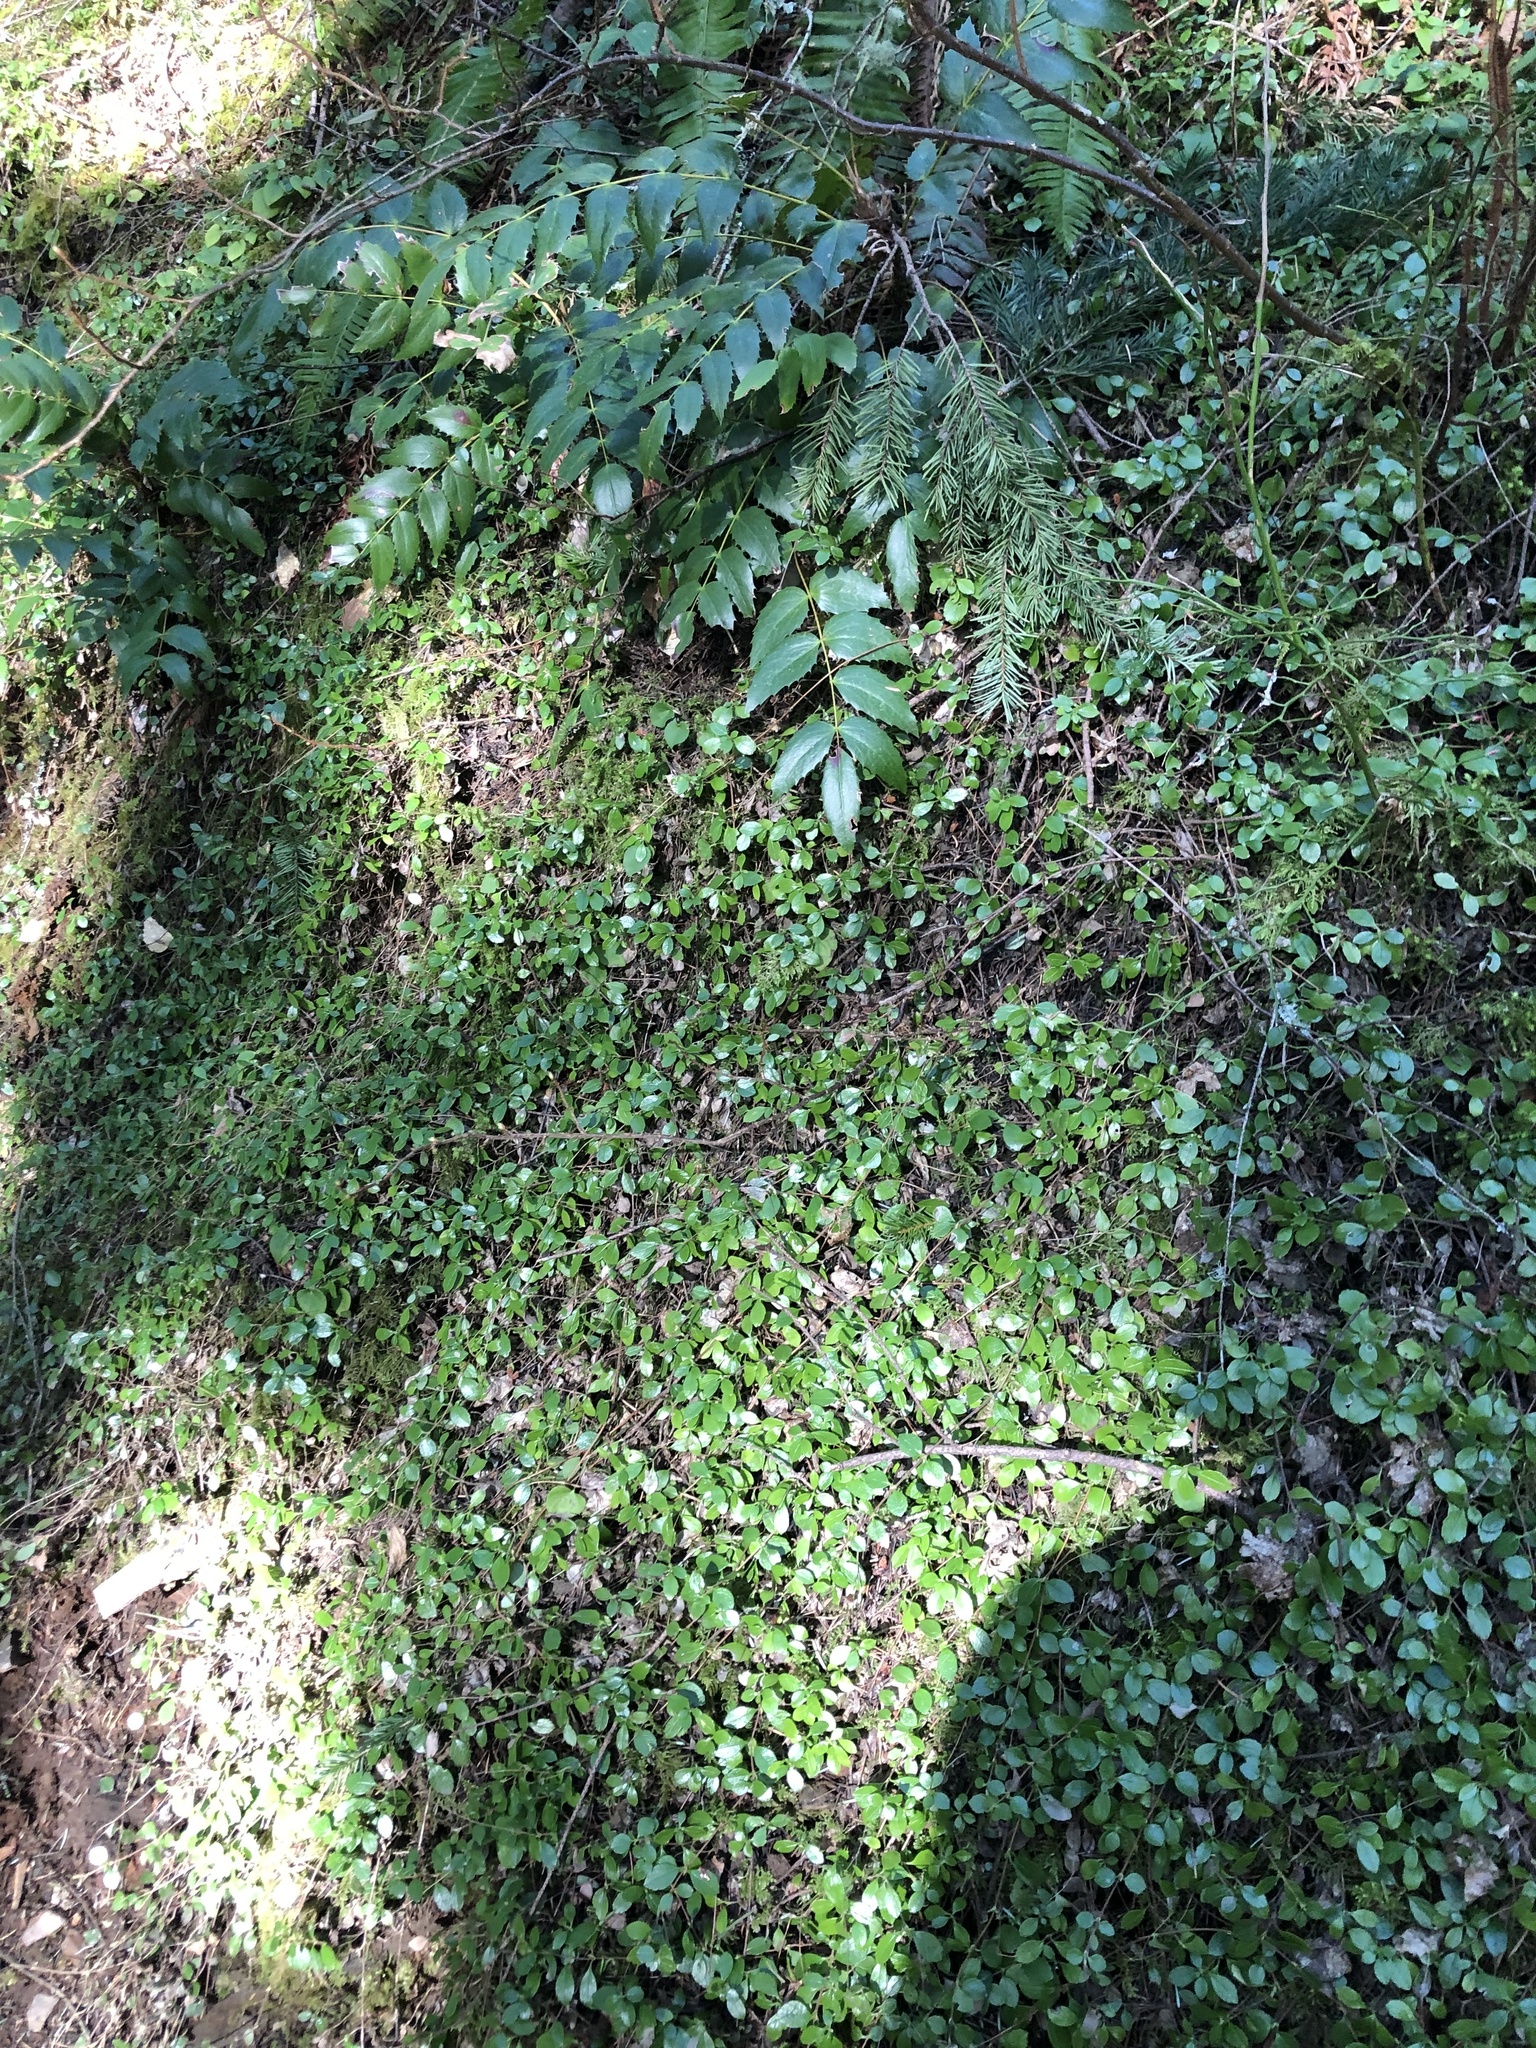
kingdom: Plantae
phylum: Tracheophyta
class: Magnoliopsida
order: Dipsacales
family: Caprifoliaceae
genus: Linnaea
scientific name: Linnaea borealis
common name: Twinflower
